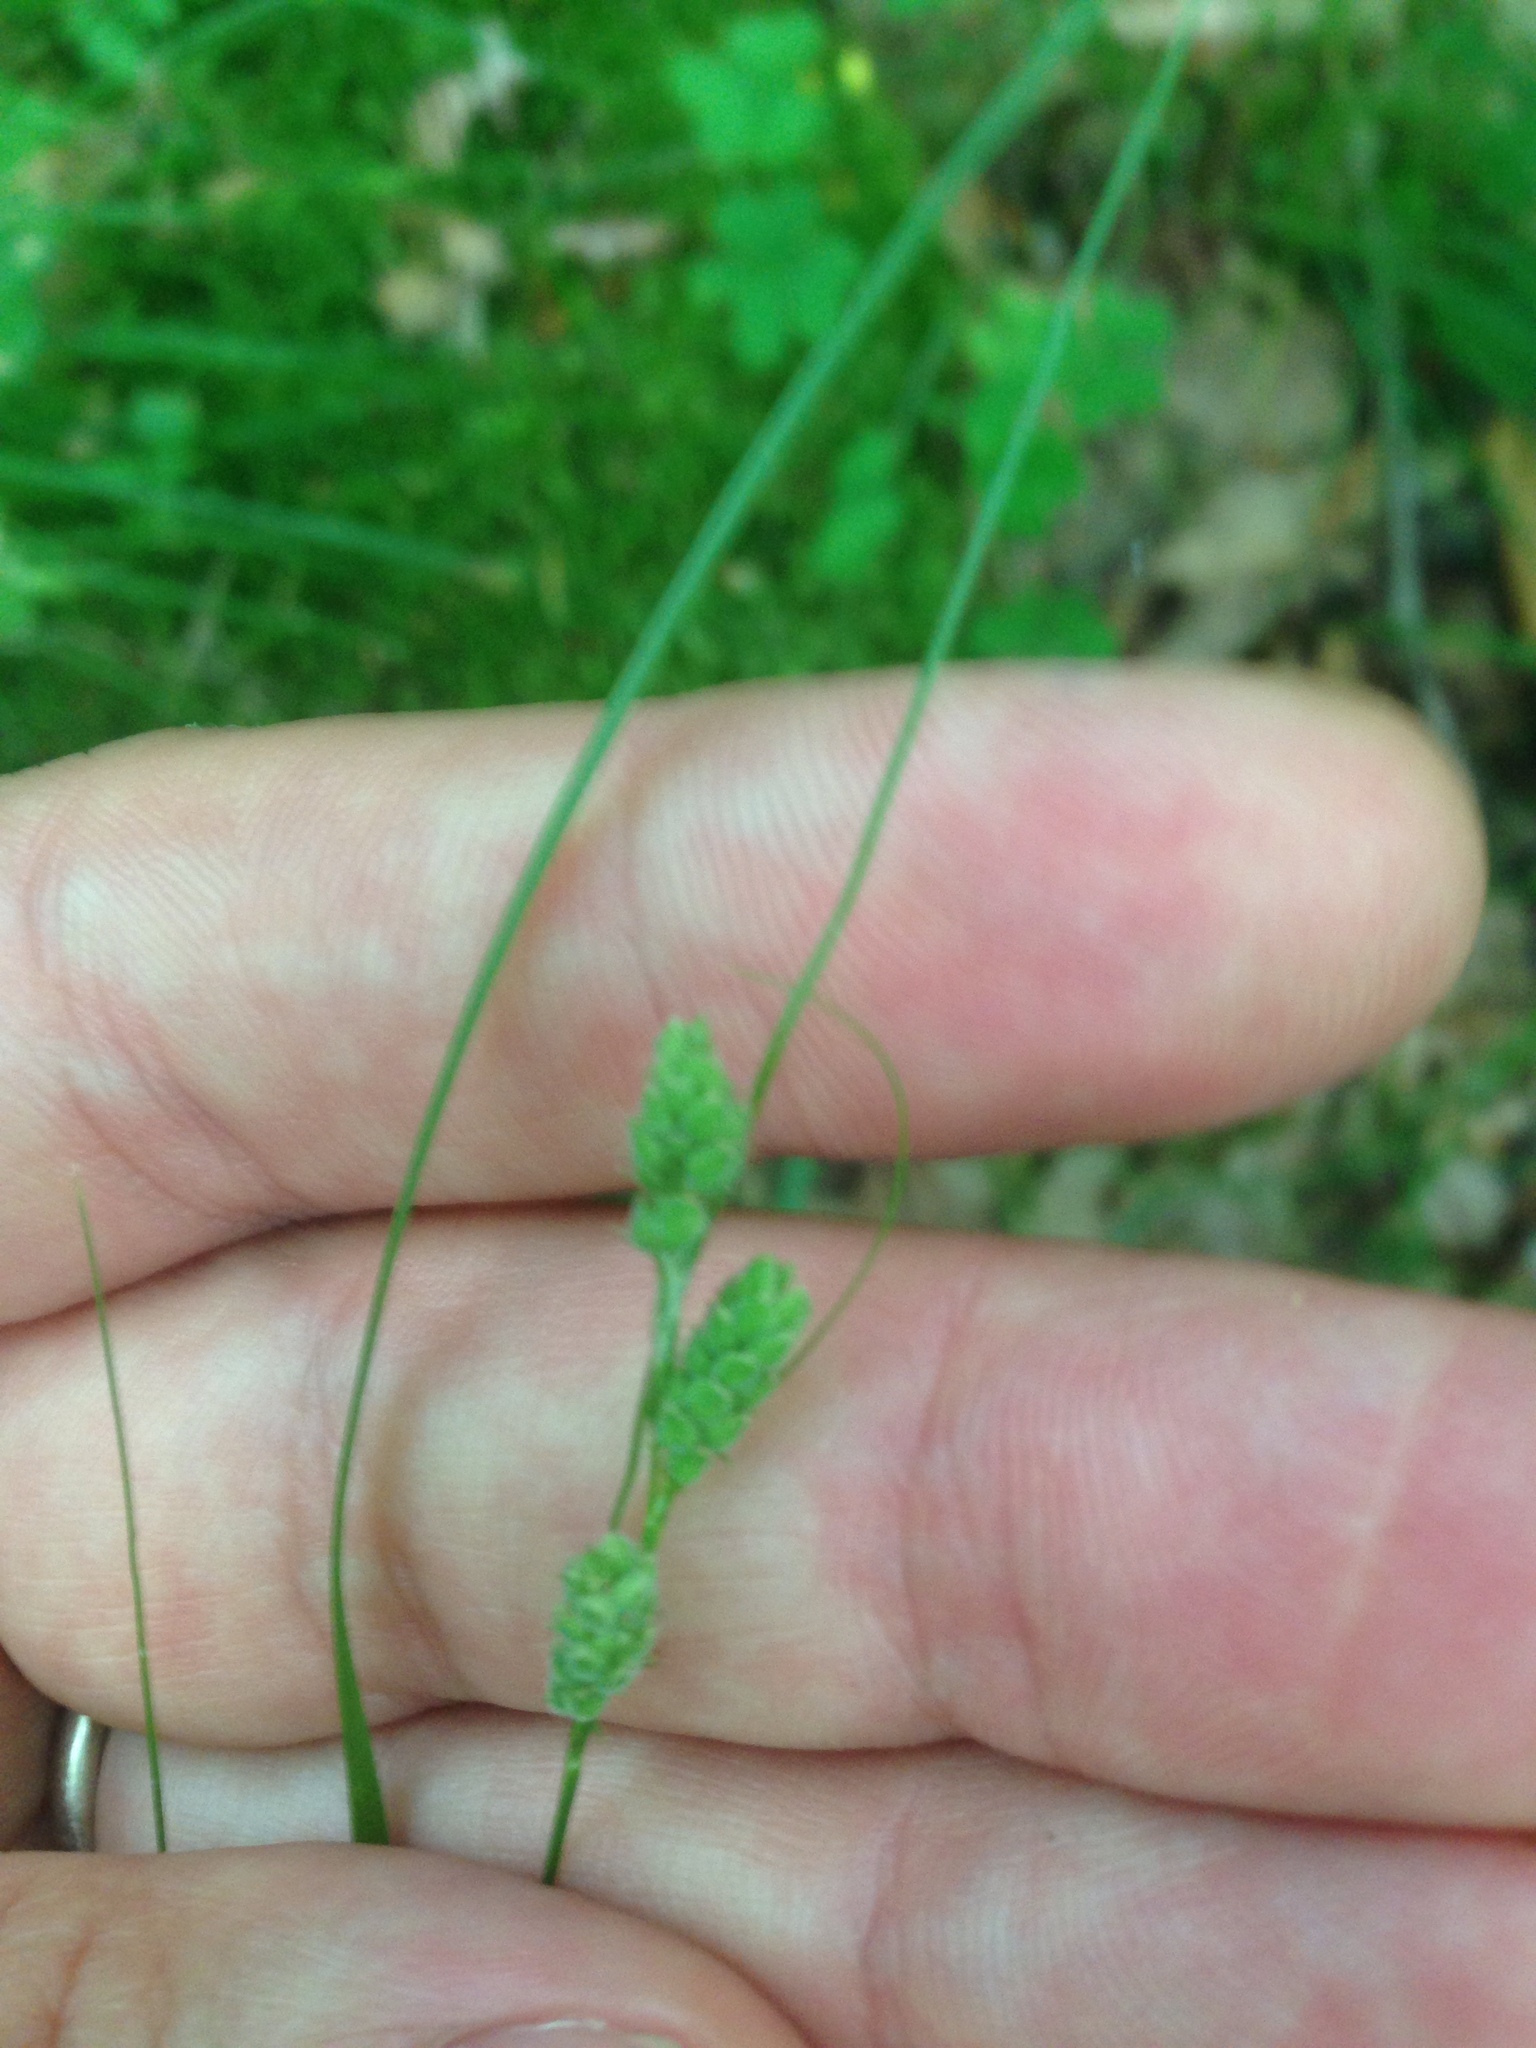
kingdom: Plantae
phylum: Tracheophyta
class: Liliopsida
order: Poales
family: Cyperaceae
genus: Carex
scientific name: Carex swanii
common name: Downy green sedge
